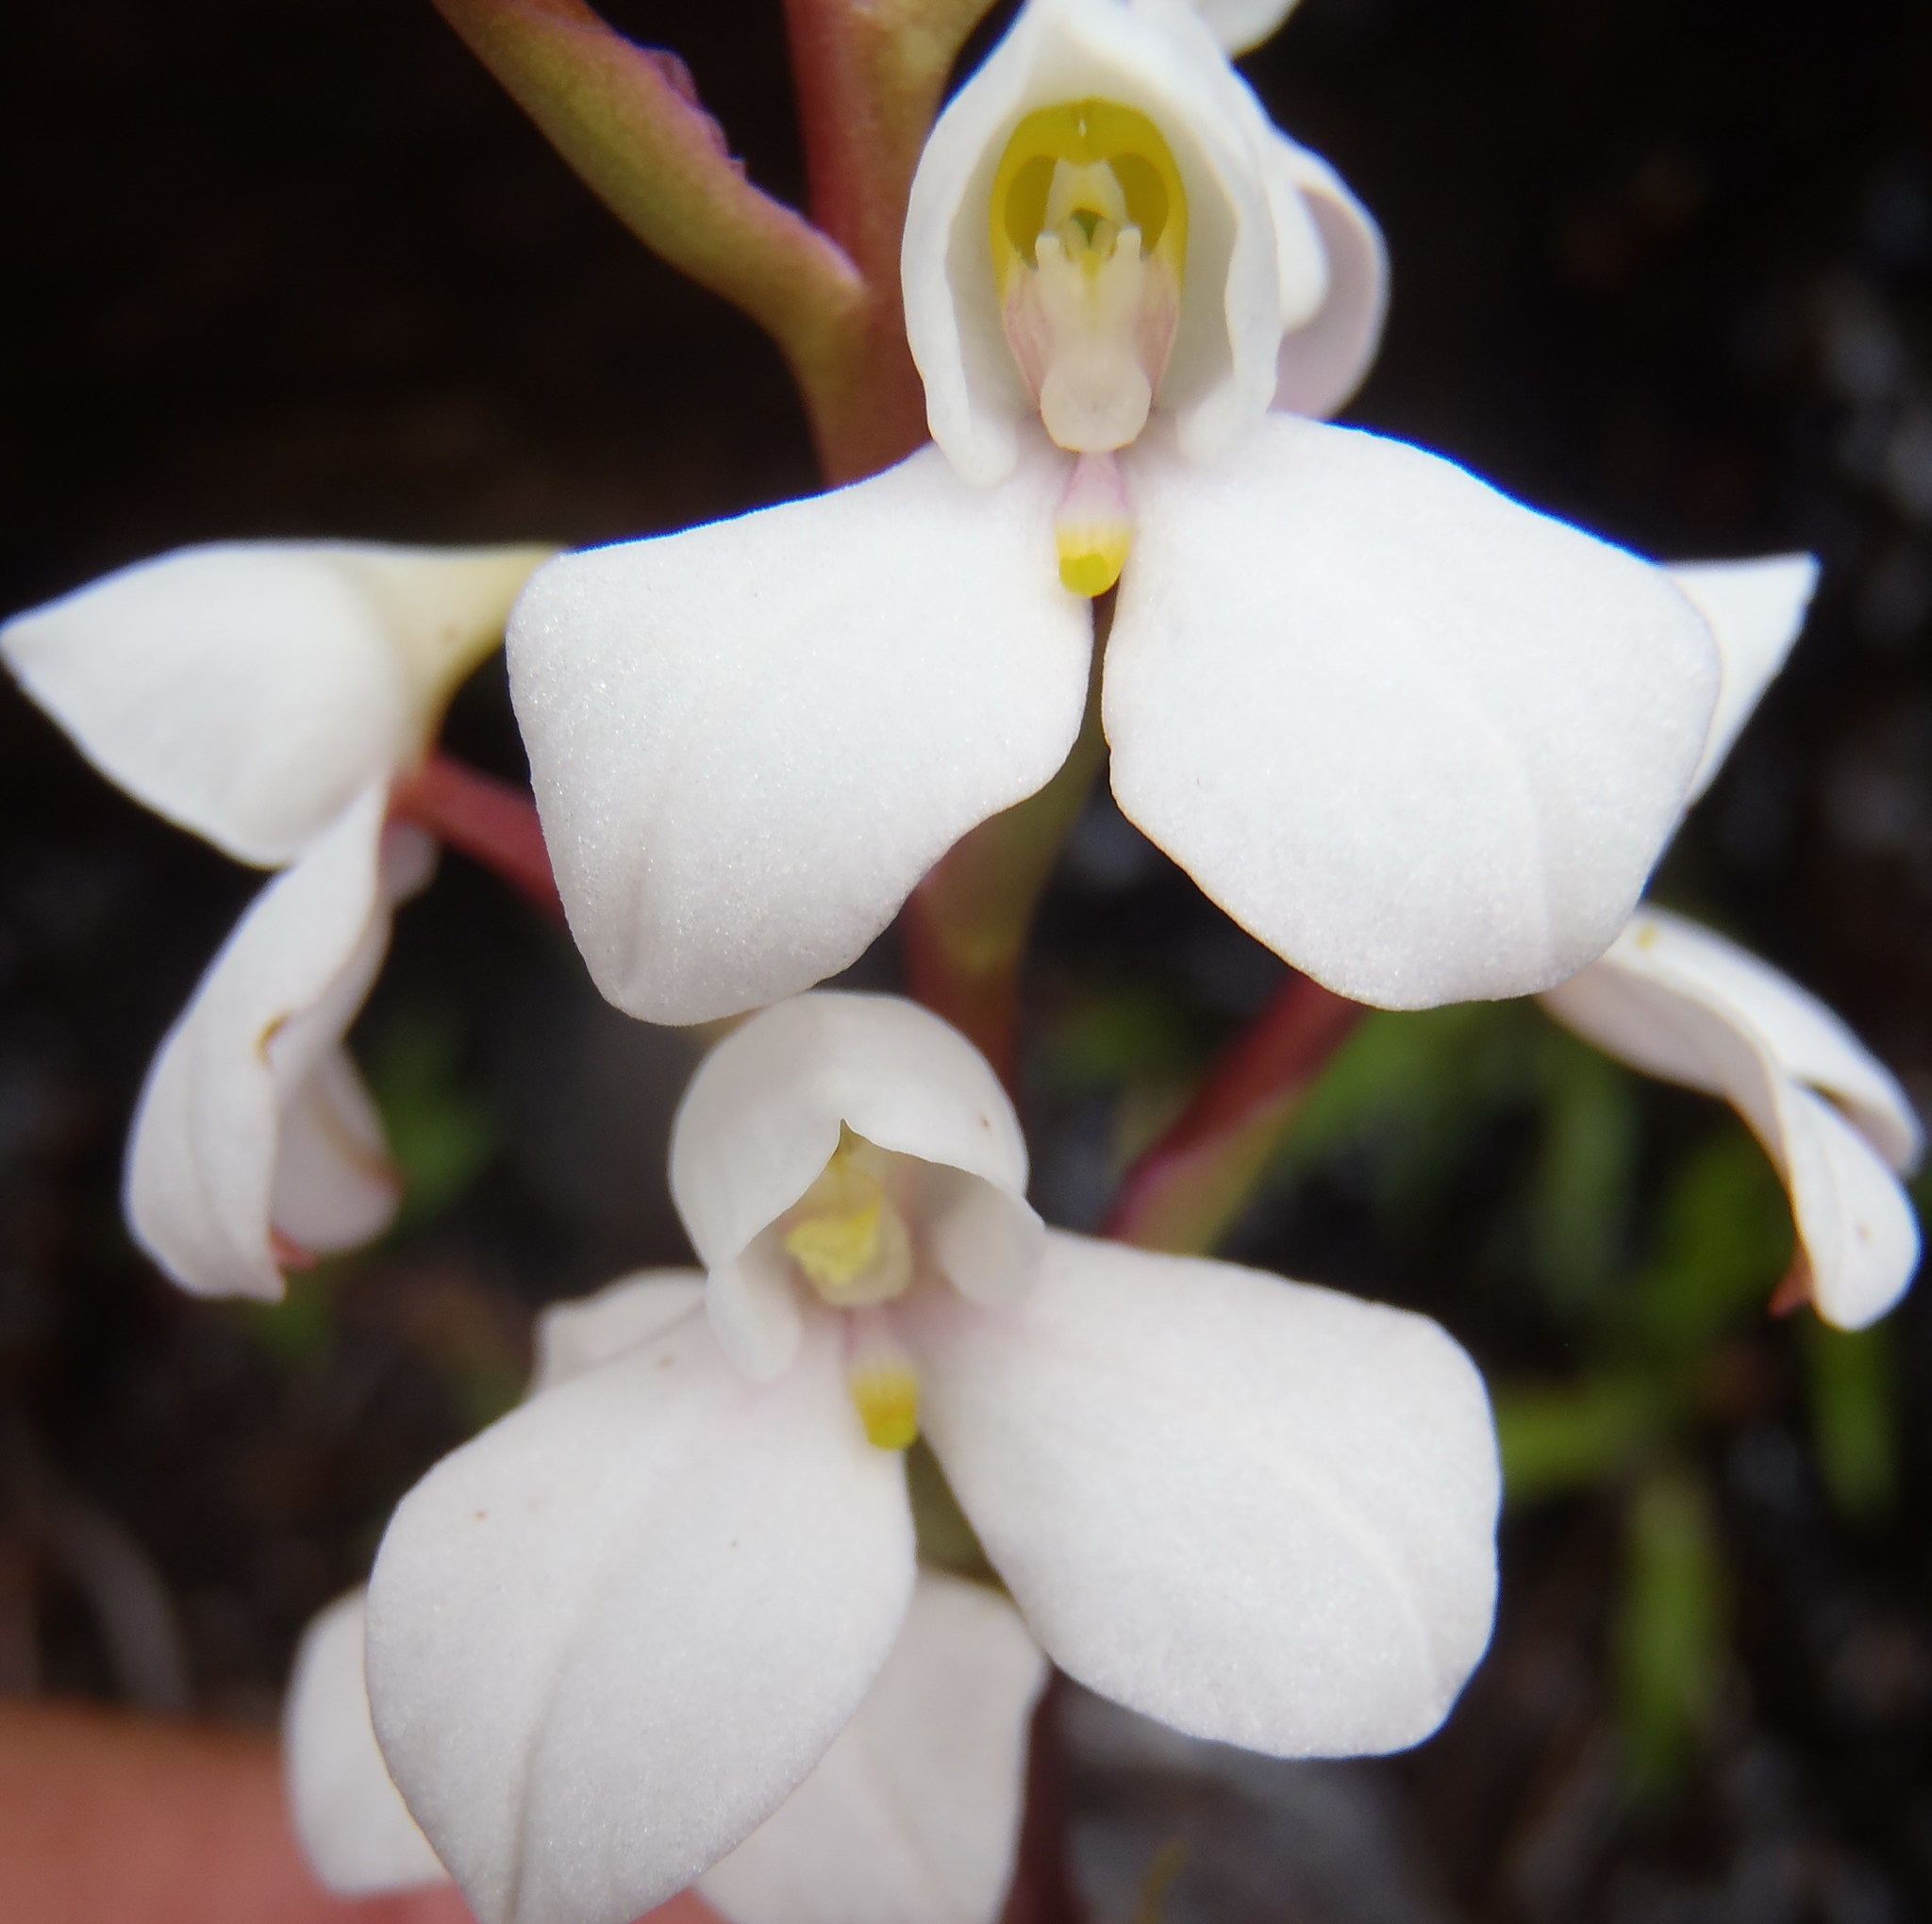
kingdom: Plantae
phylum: Tracheophyta
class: Liliopsida
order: Asparagales
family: Orchidaceae
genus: Disa
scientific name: Disa tripetaloides
